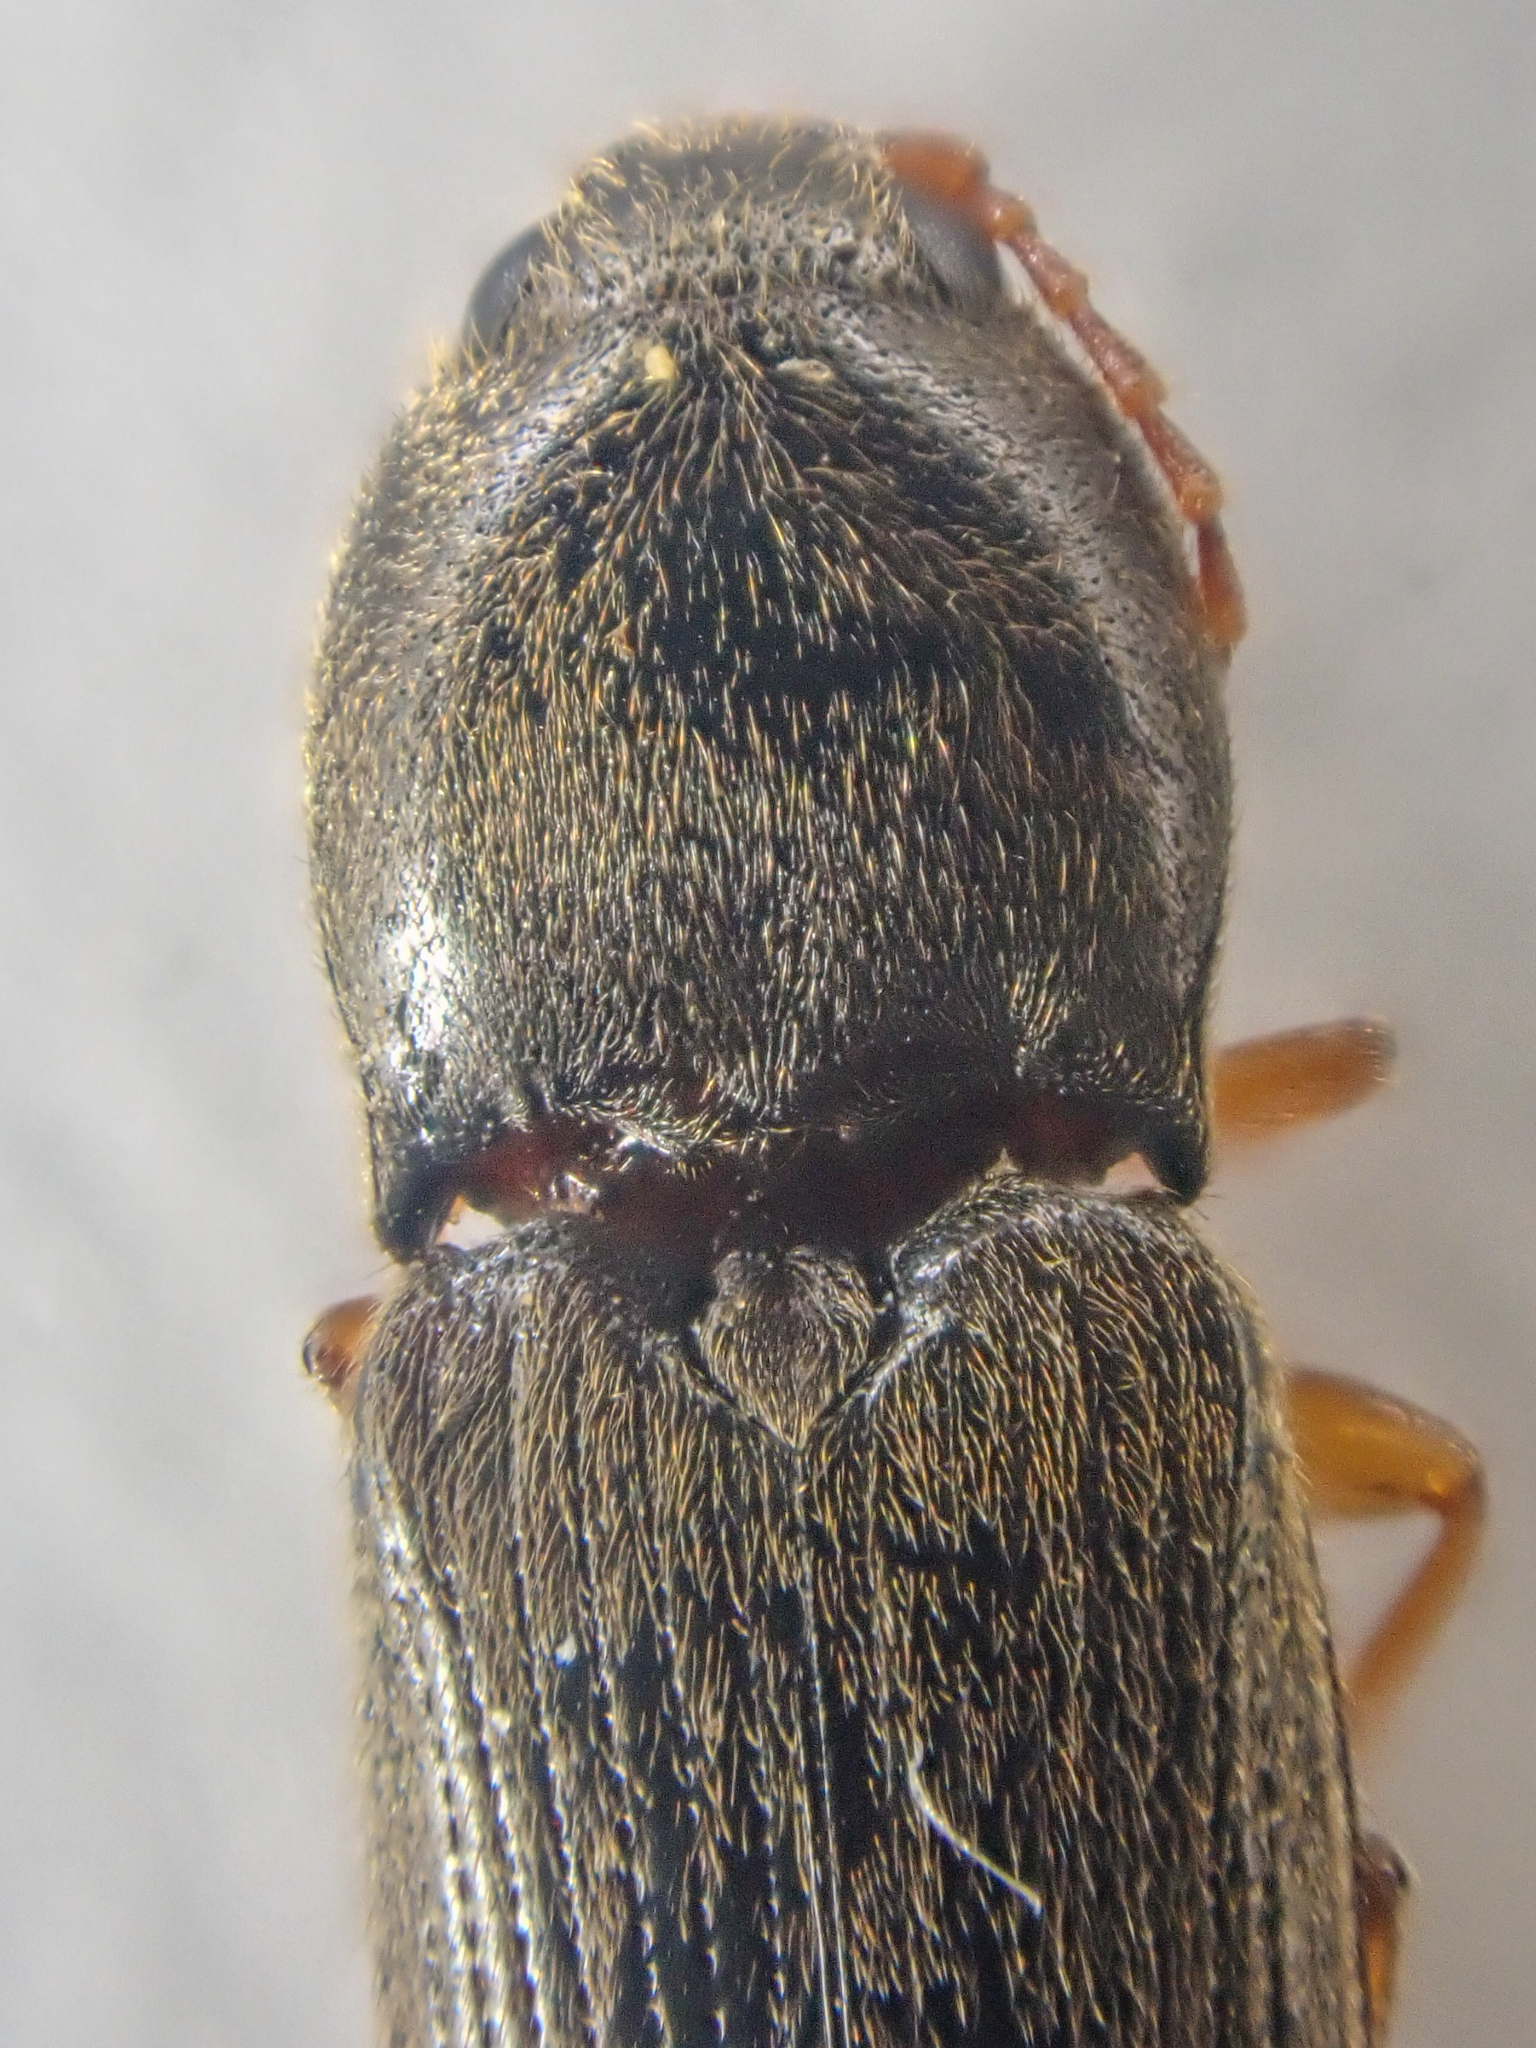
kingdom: Animalia
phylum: Arthropoda
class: Insecta
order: Coleoptera
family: Elateridae
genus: Horistonotus
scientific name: Horistonotus
